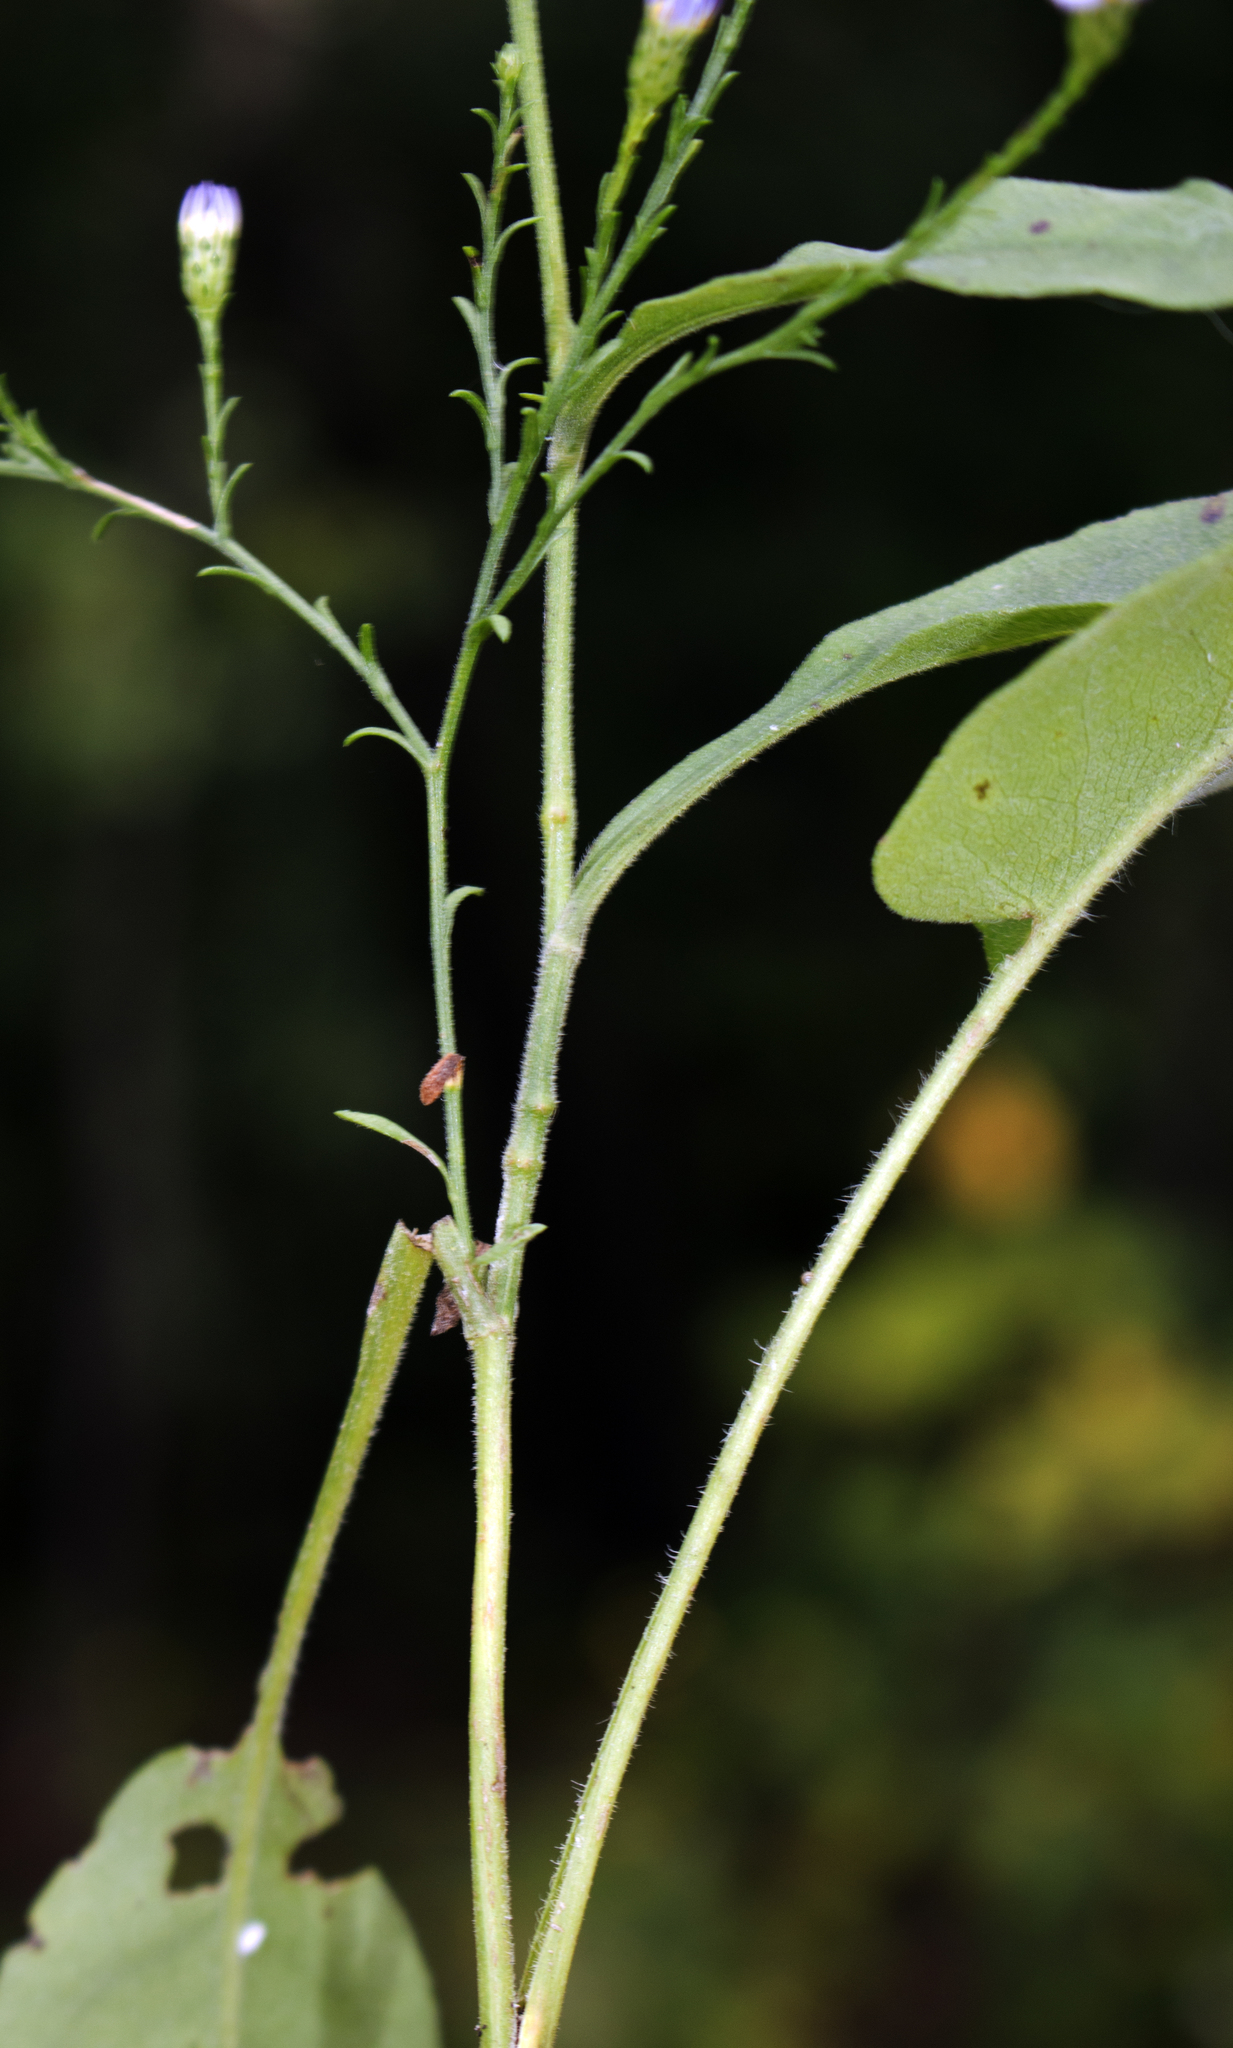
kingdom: Plantae
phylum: Tracheophyta
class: Magnoliopsida
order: Asterales
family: Asteraceae
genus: Symphyotrichum
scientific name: Symphyotrichum oolentangiense
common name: Azure aster
